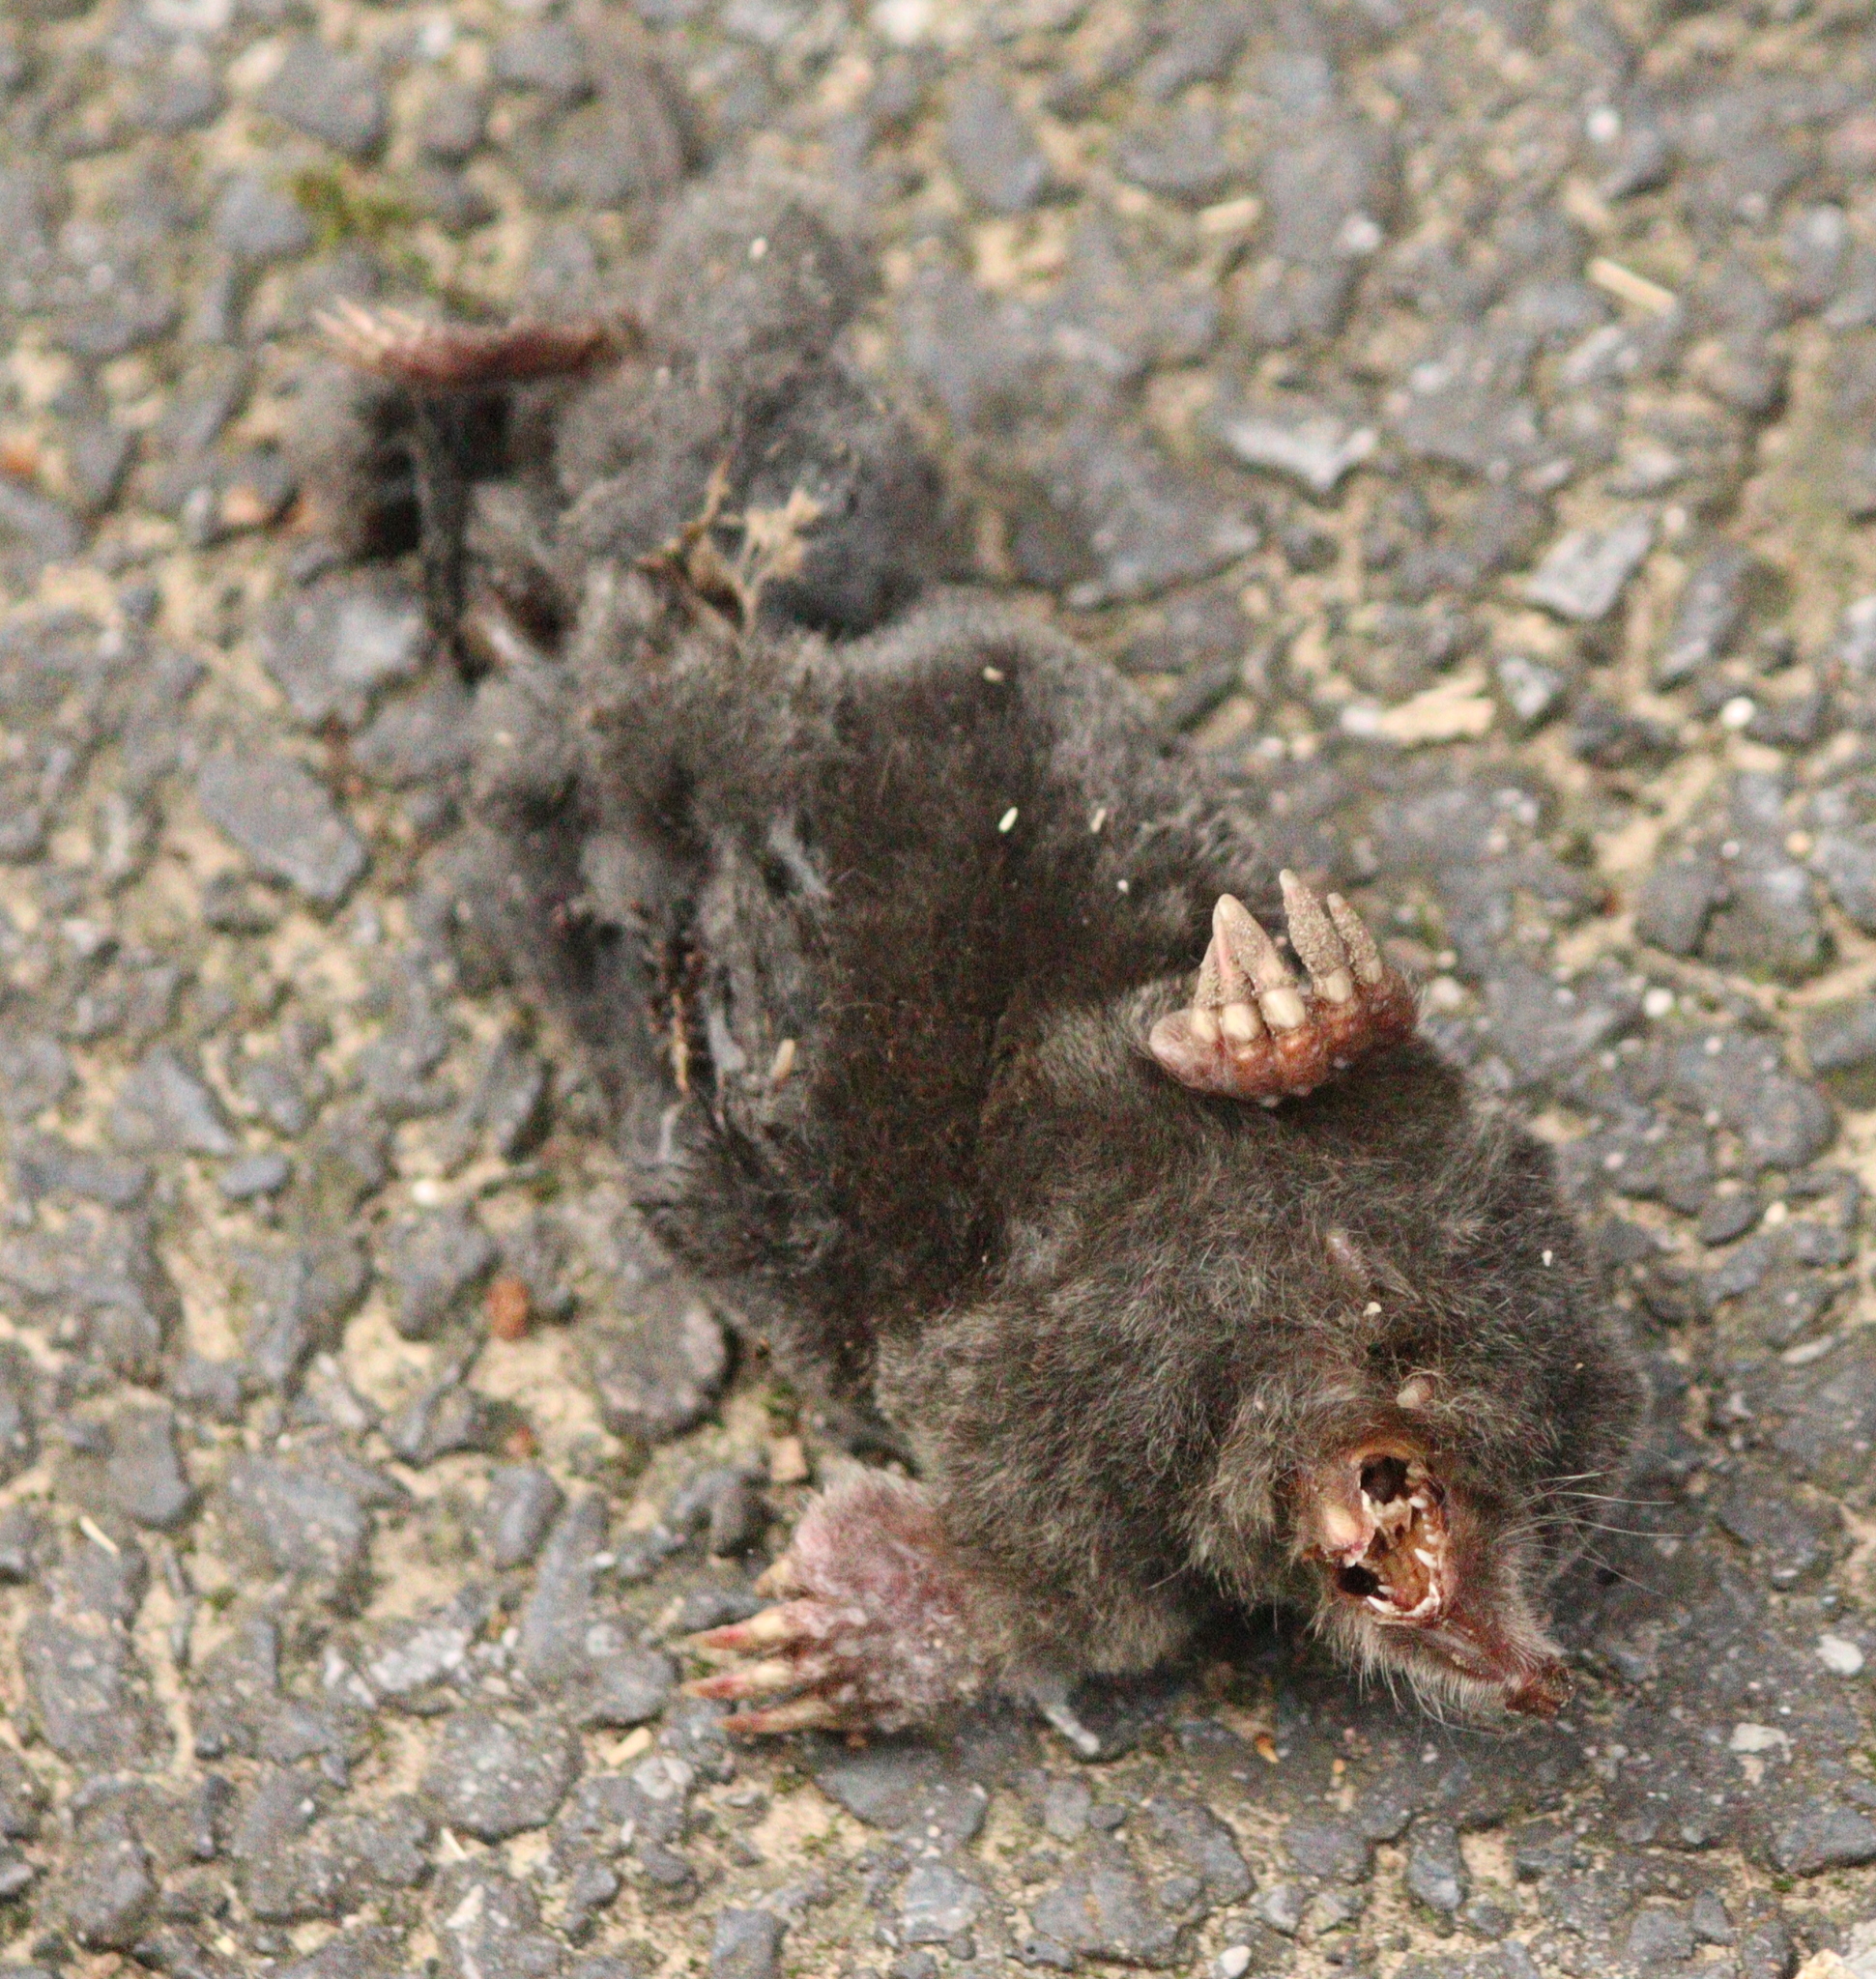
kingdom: Animalia
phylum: Chordata
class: Mammalia
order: Soricomorpha
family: Talpidae
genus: Talpa
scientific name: Talpa europaea
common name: European mole
